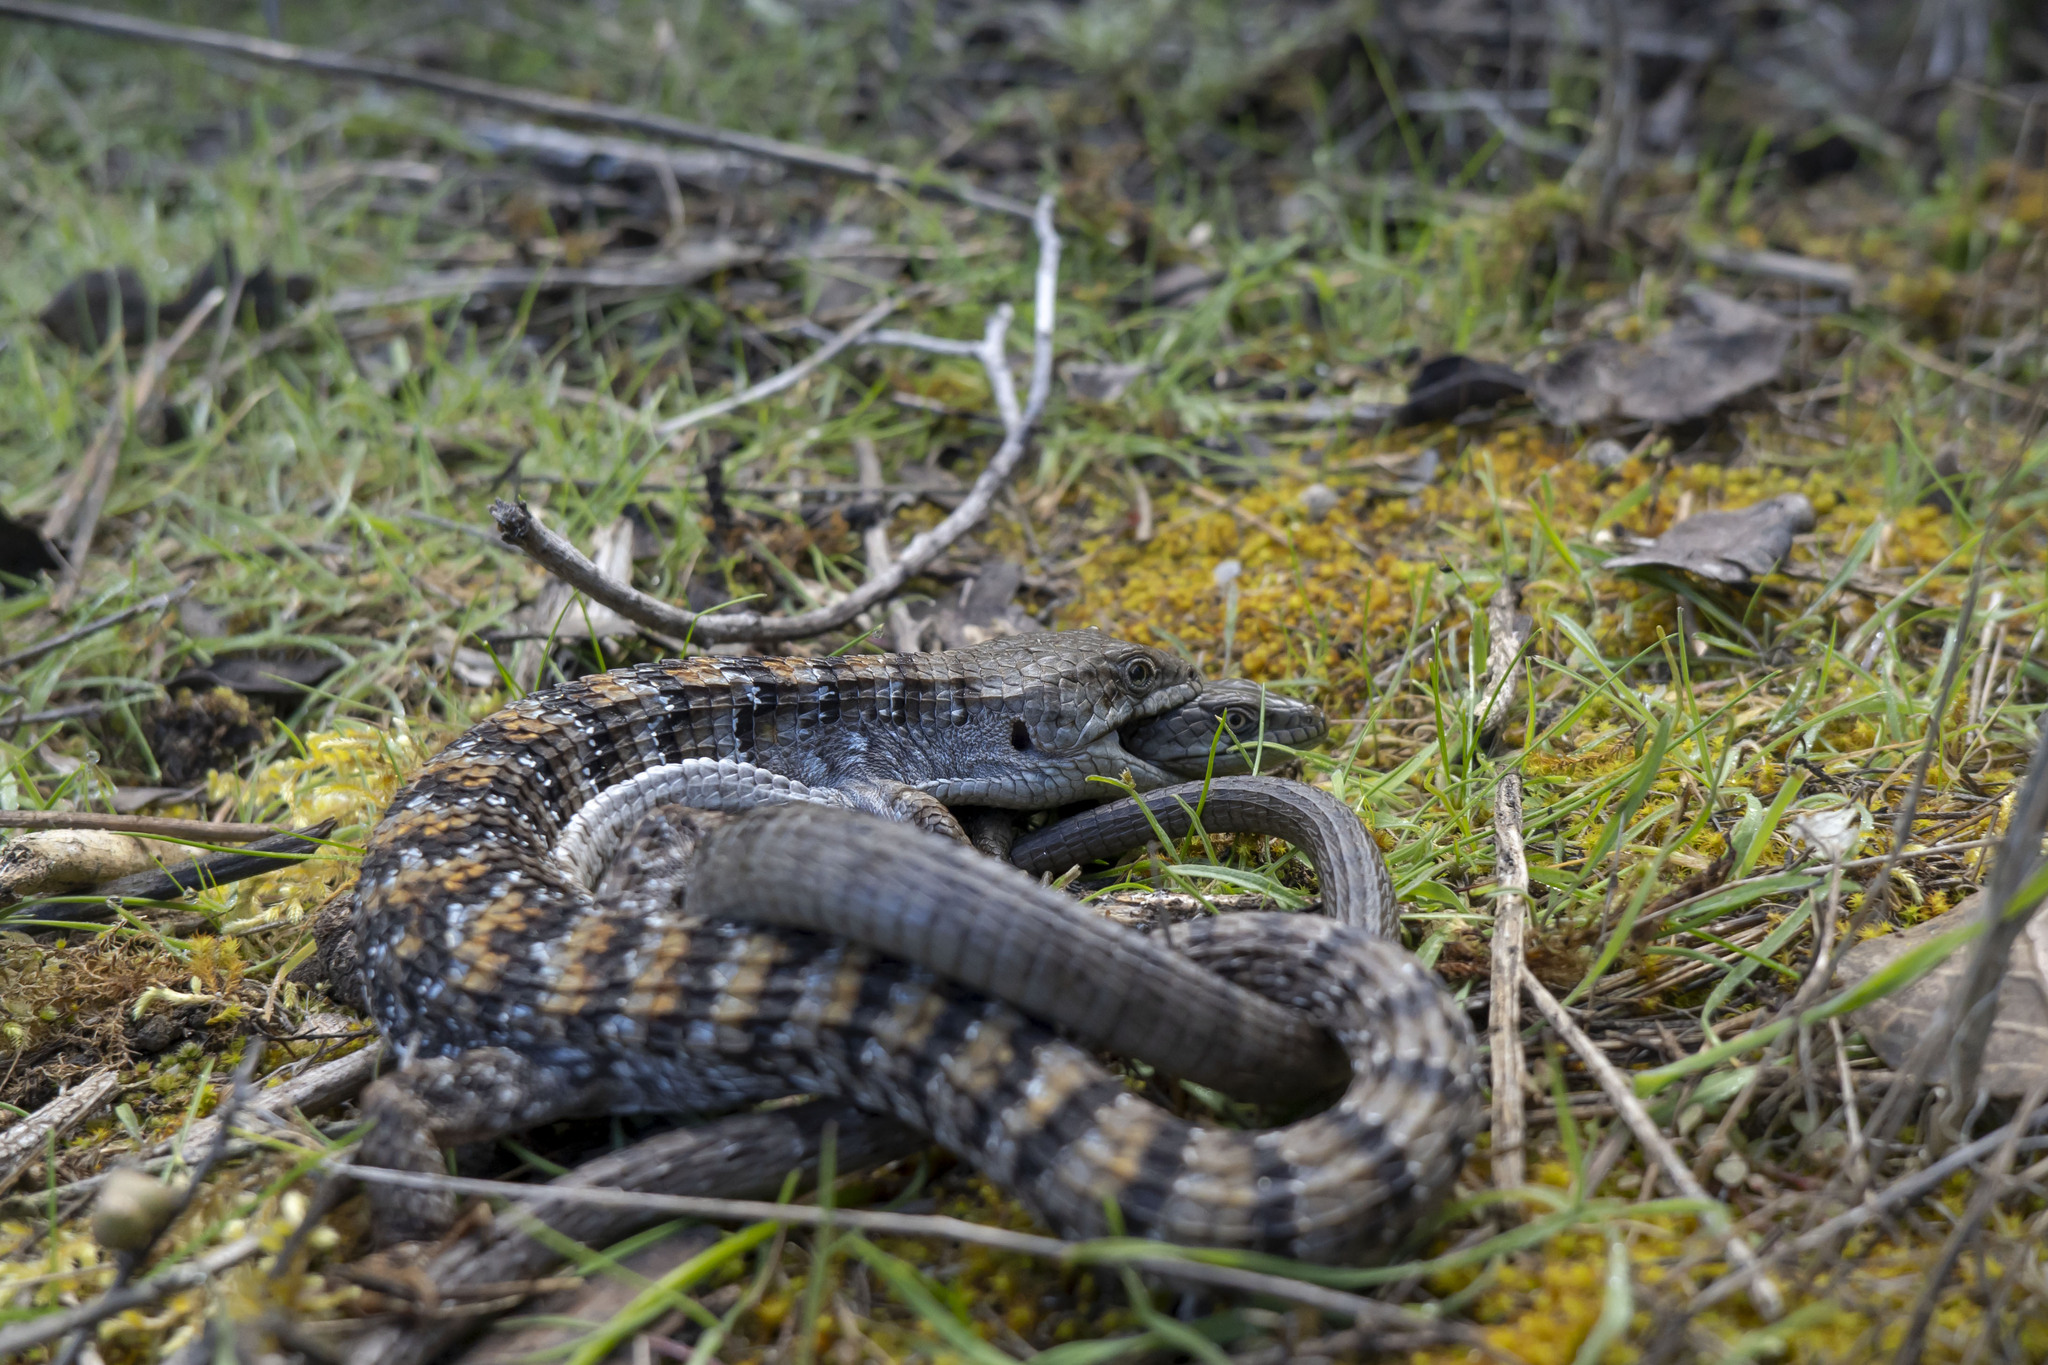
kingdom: Animalia
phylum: Chordata
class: Squamata
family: Anguidae
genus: Elgaria
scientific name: Elgaria multicarinata
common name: Southern alligator lizard
